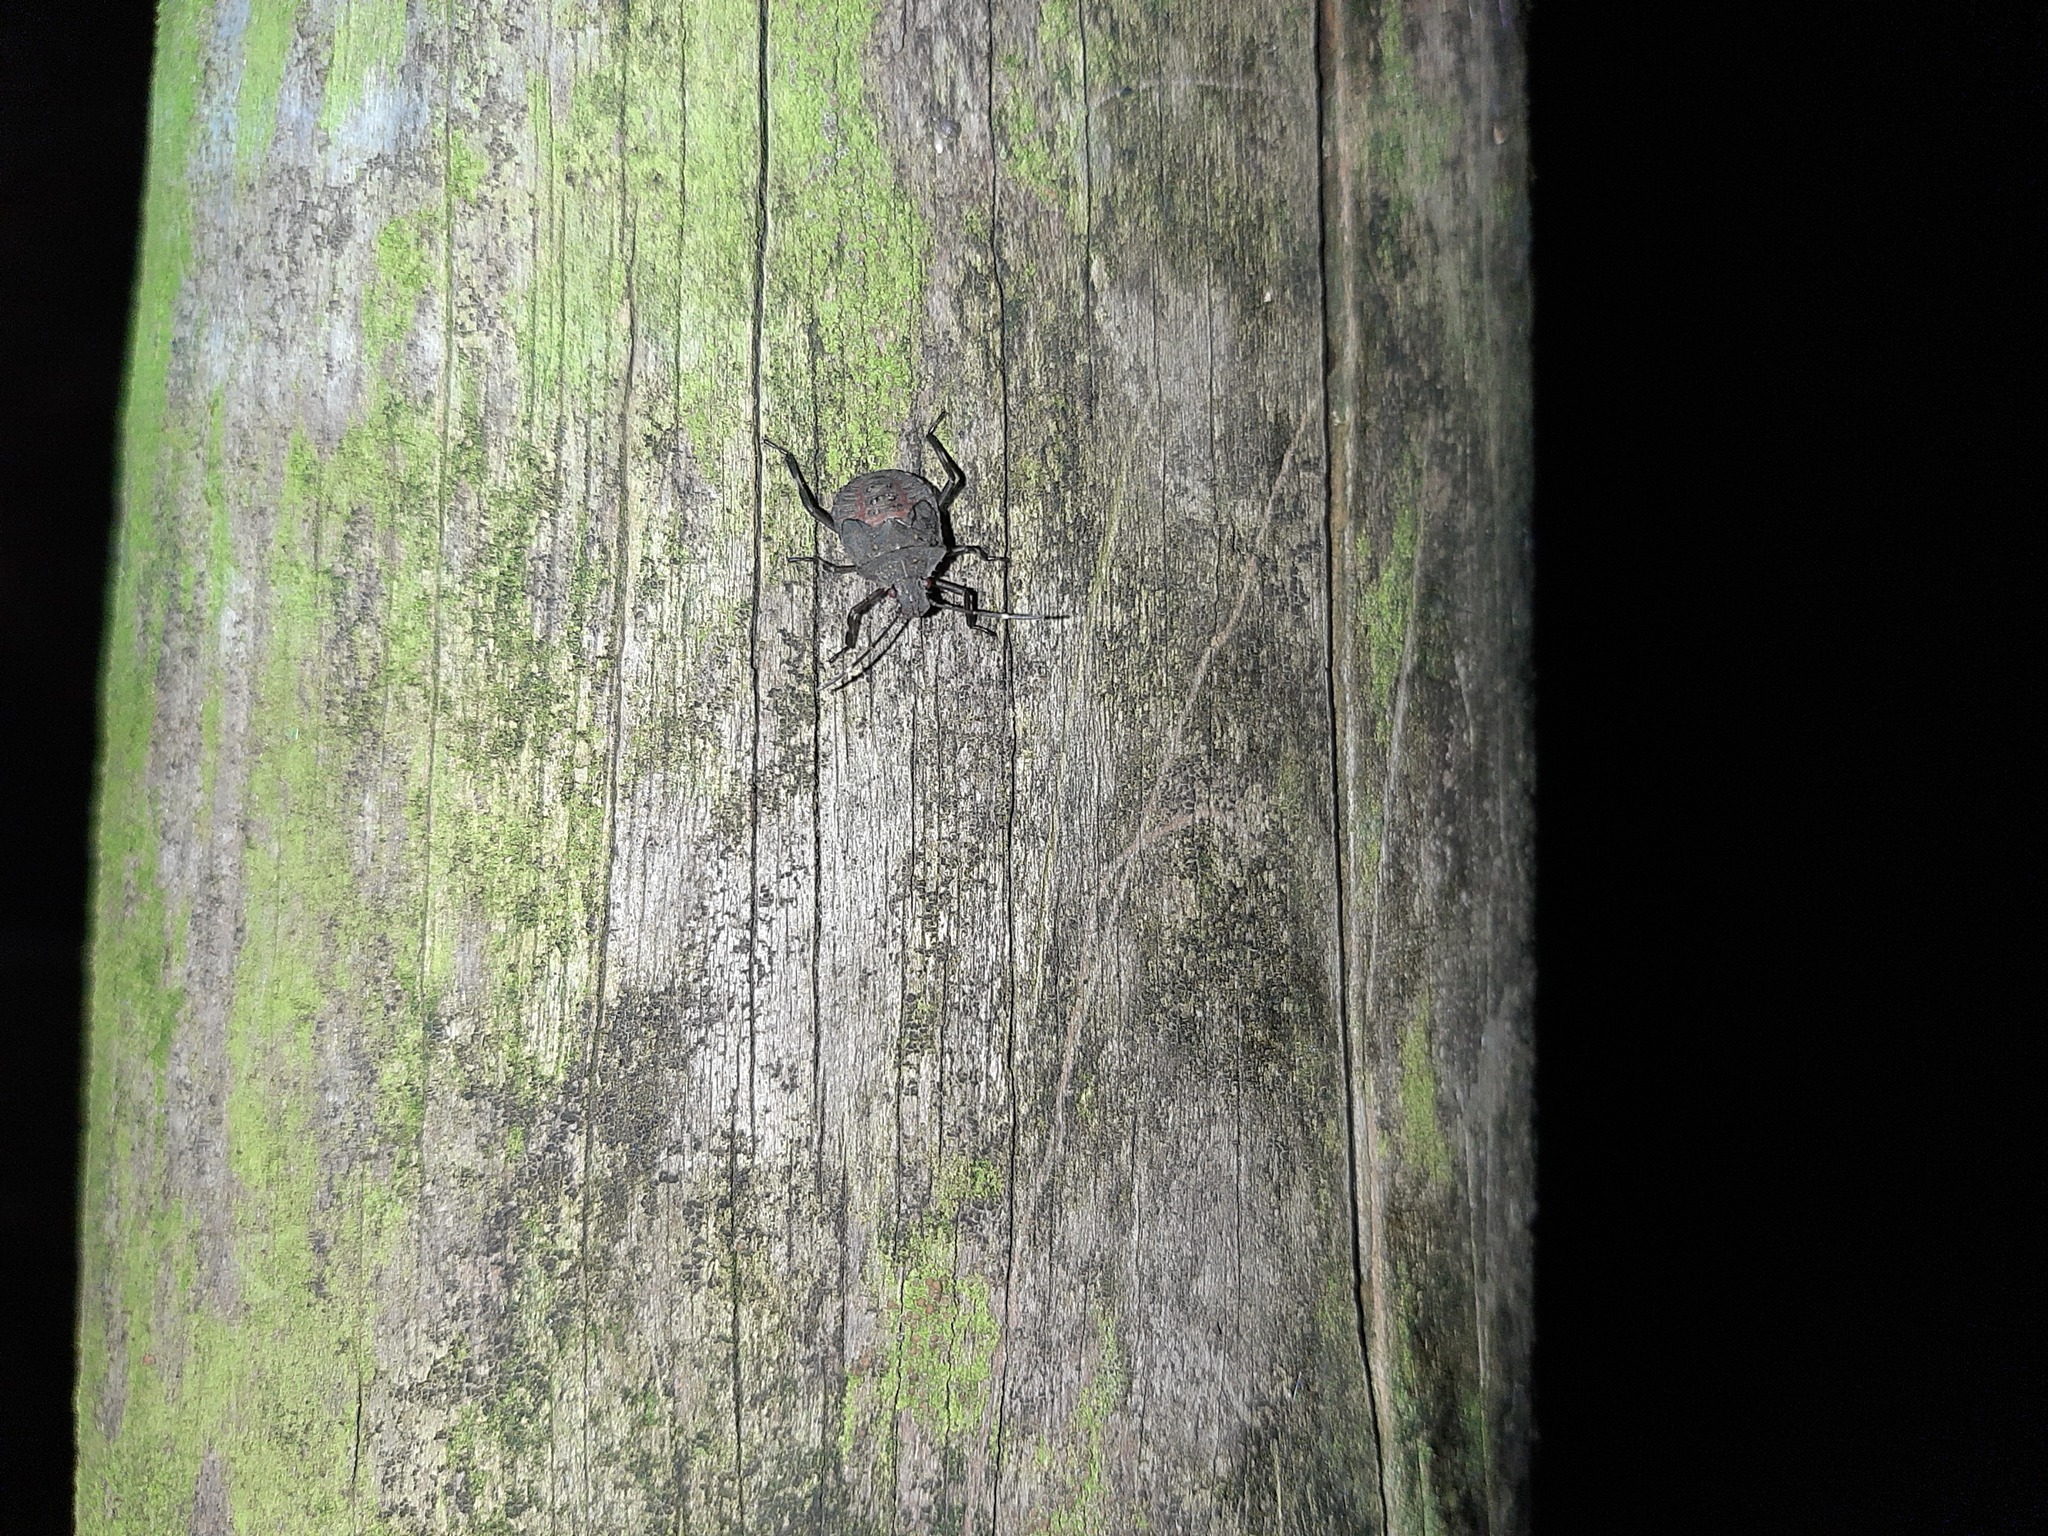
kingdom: Animalia
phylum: Arthropoda
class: Insecta
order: Hemiptera
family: Pentatomidae
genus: Halyomorpha
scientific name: Halyomorpha halys
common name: Brown marmorated stink bug
